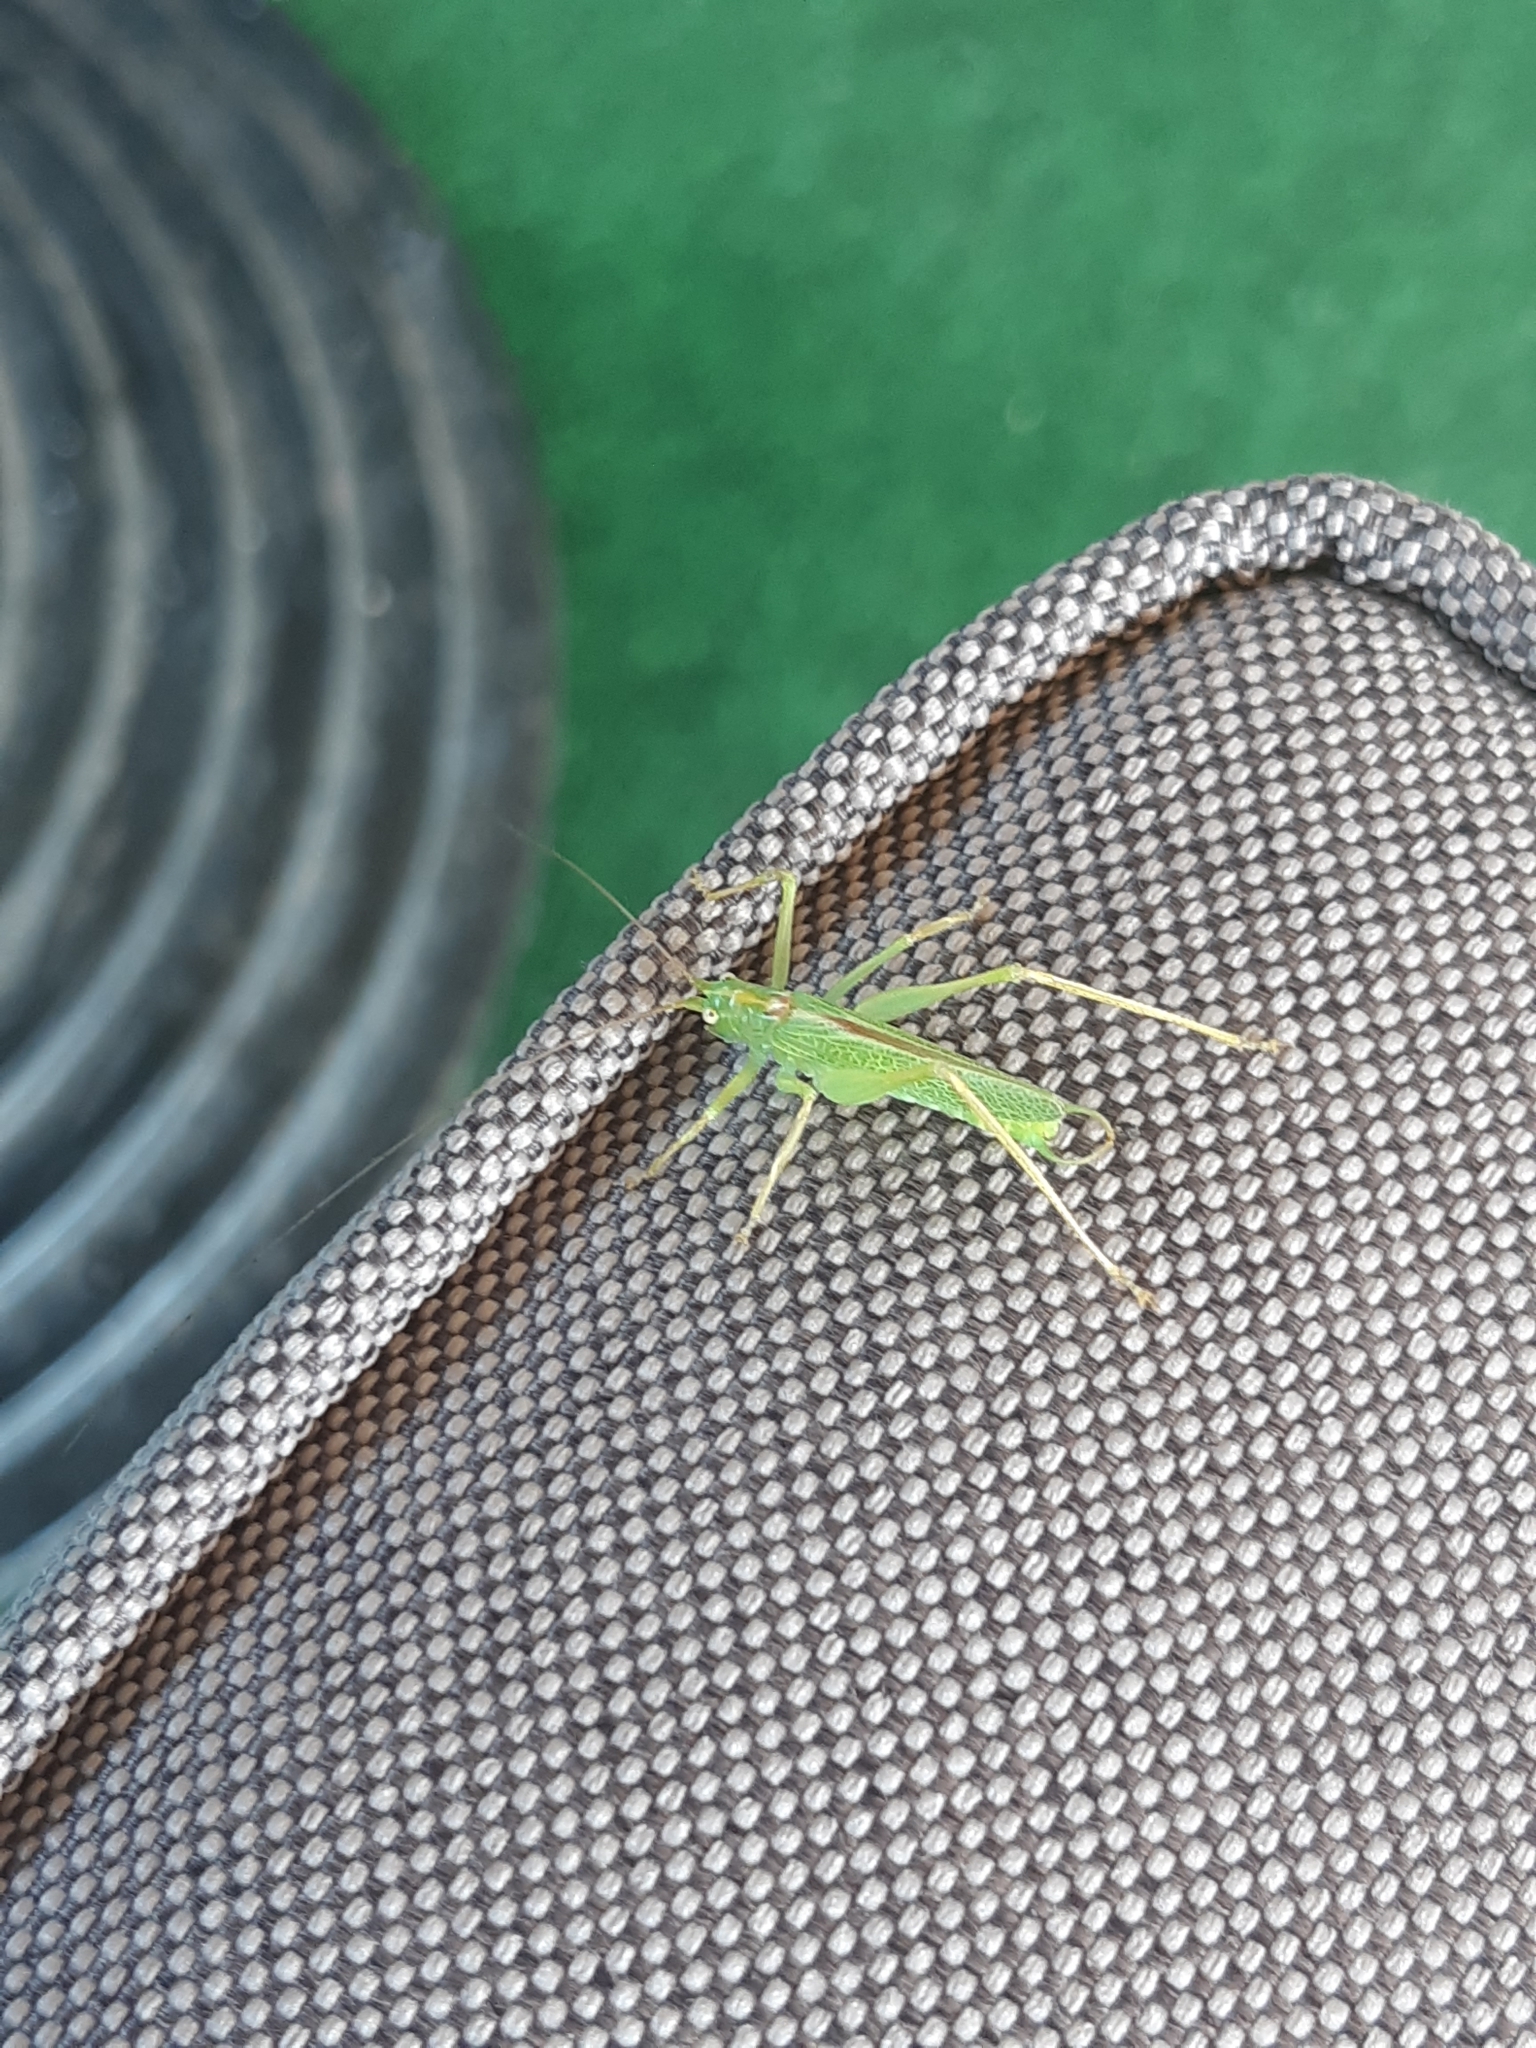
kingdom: Animalia
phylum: Arthropoda
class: Insecta
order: Orthoptera
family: Tettigoniidae
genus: Meconema
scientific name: Meconema thalassinum
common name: Oak bush-cricket
